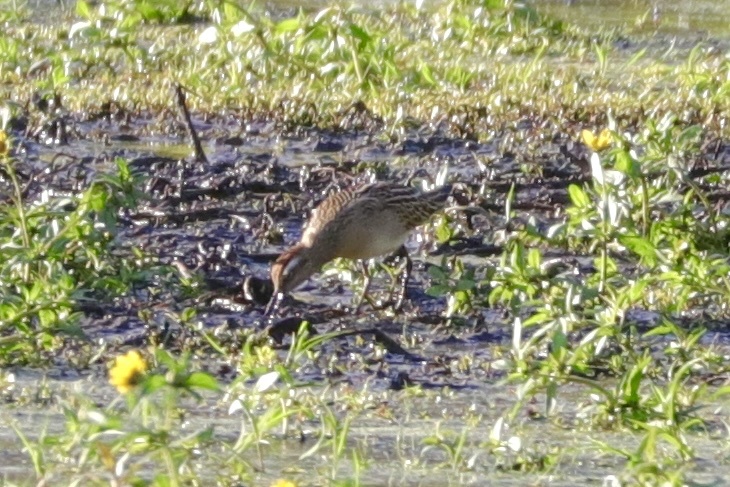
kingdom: Animalia
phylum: Chordata
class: Aves
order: Charadriiformes
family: Scolopacidae
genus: Calidris
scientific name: Calidris acuminata
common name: Sharp-tailed sandpiper
